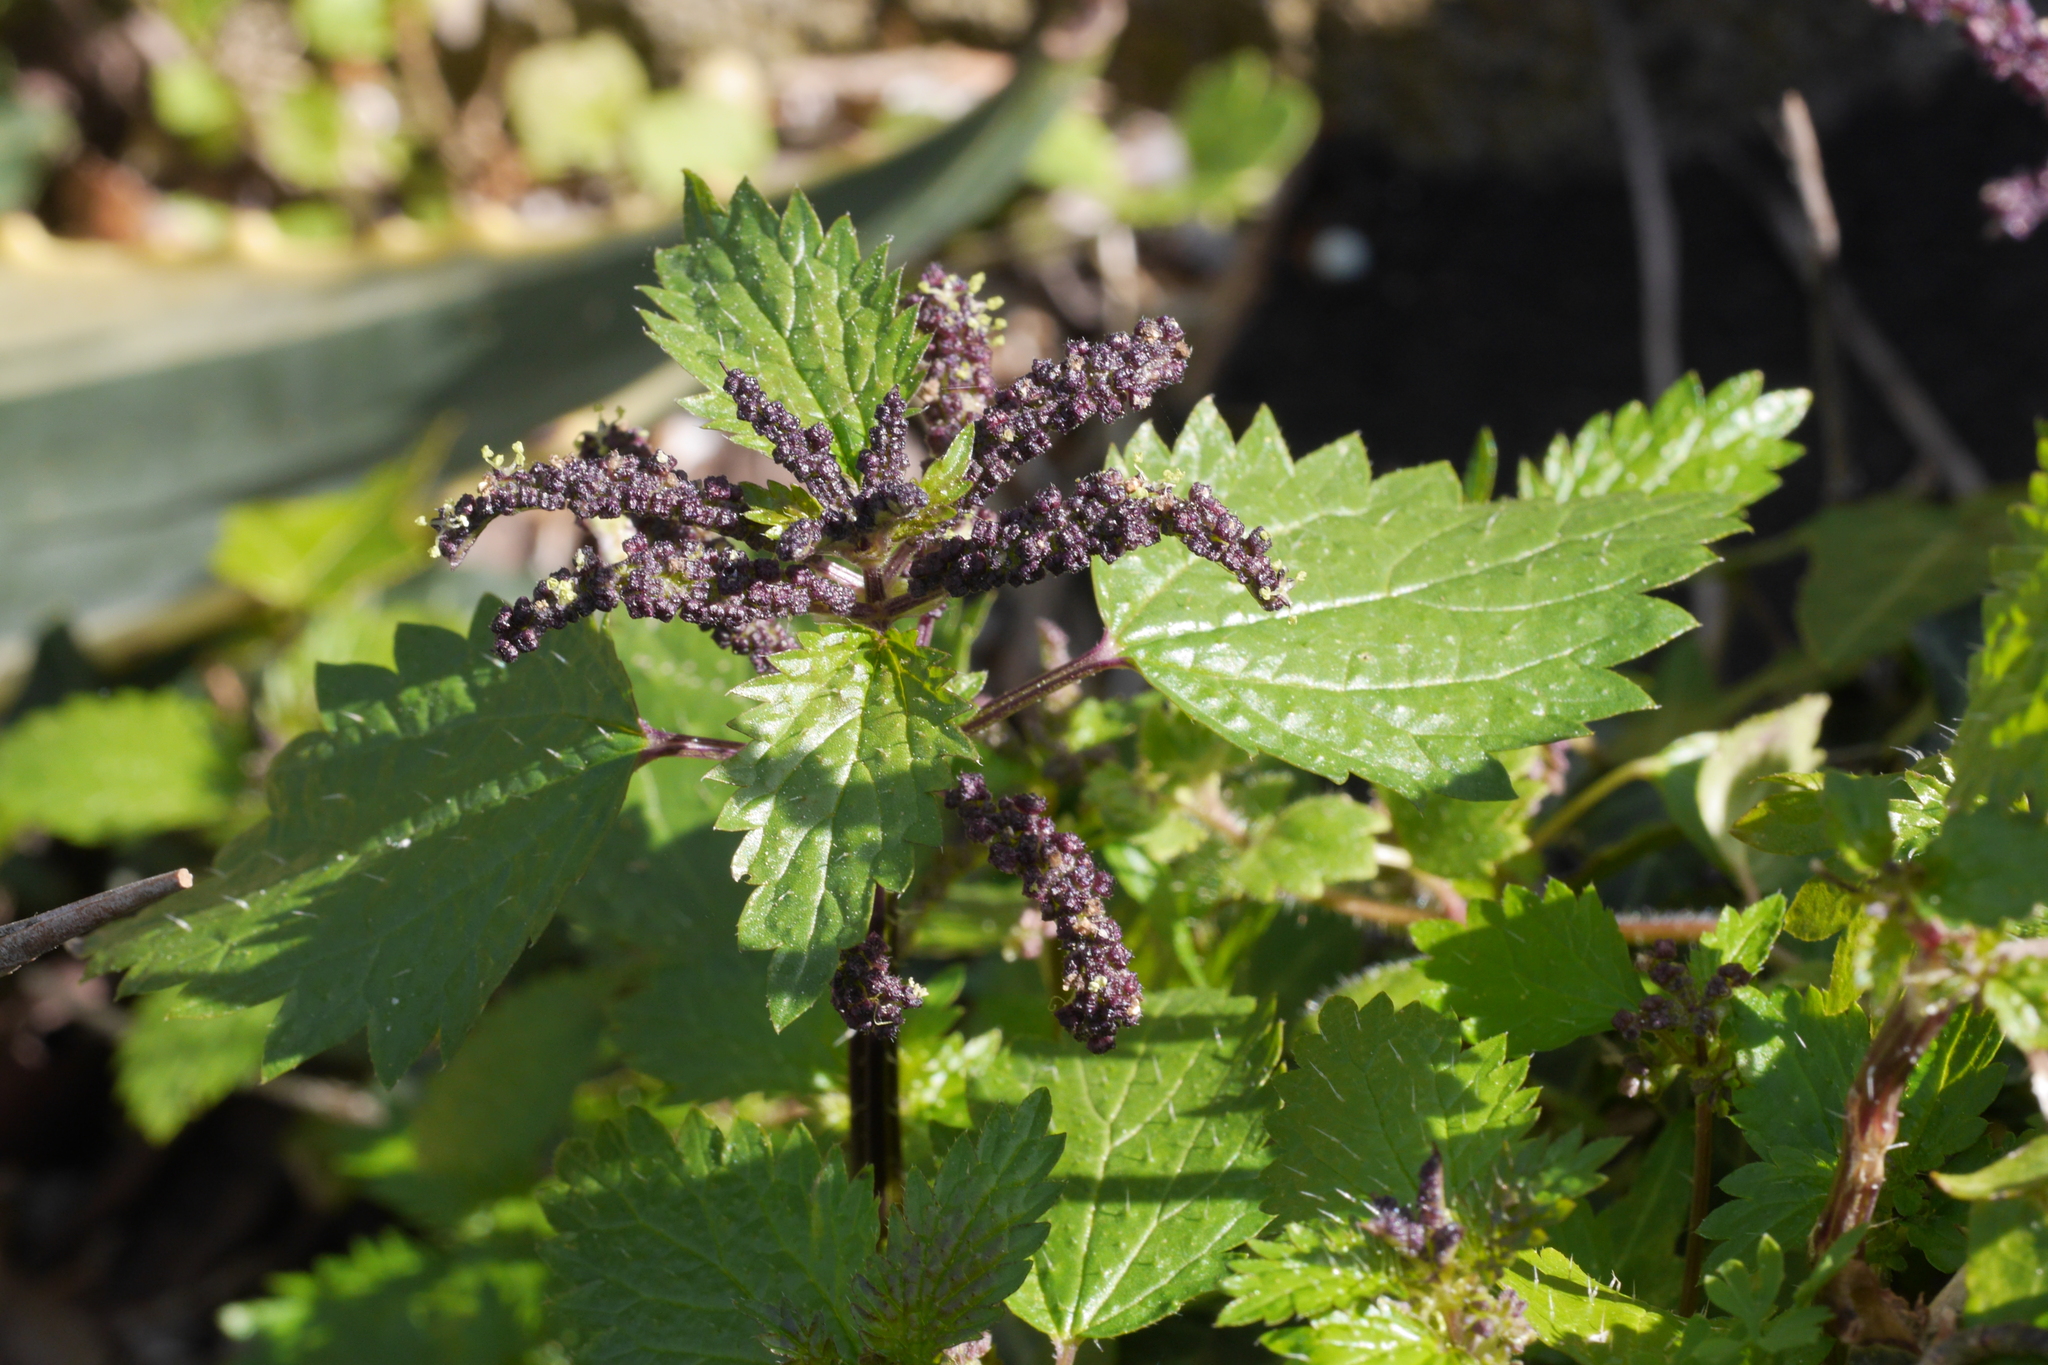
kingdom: Plantae
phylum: Tracheophyta
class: Magnoliopsida
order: Rosales
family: Urticaceae
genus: Urtica
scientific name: Urtica membranacea
